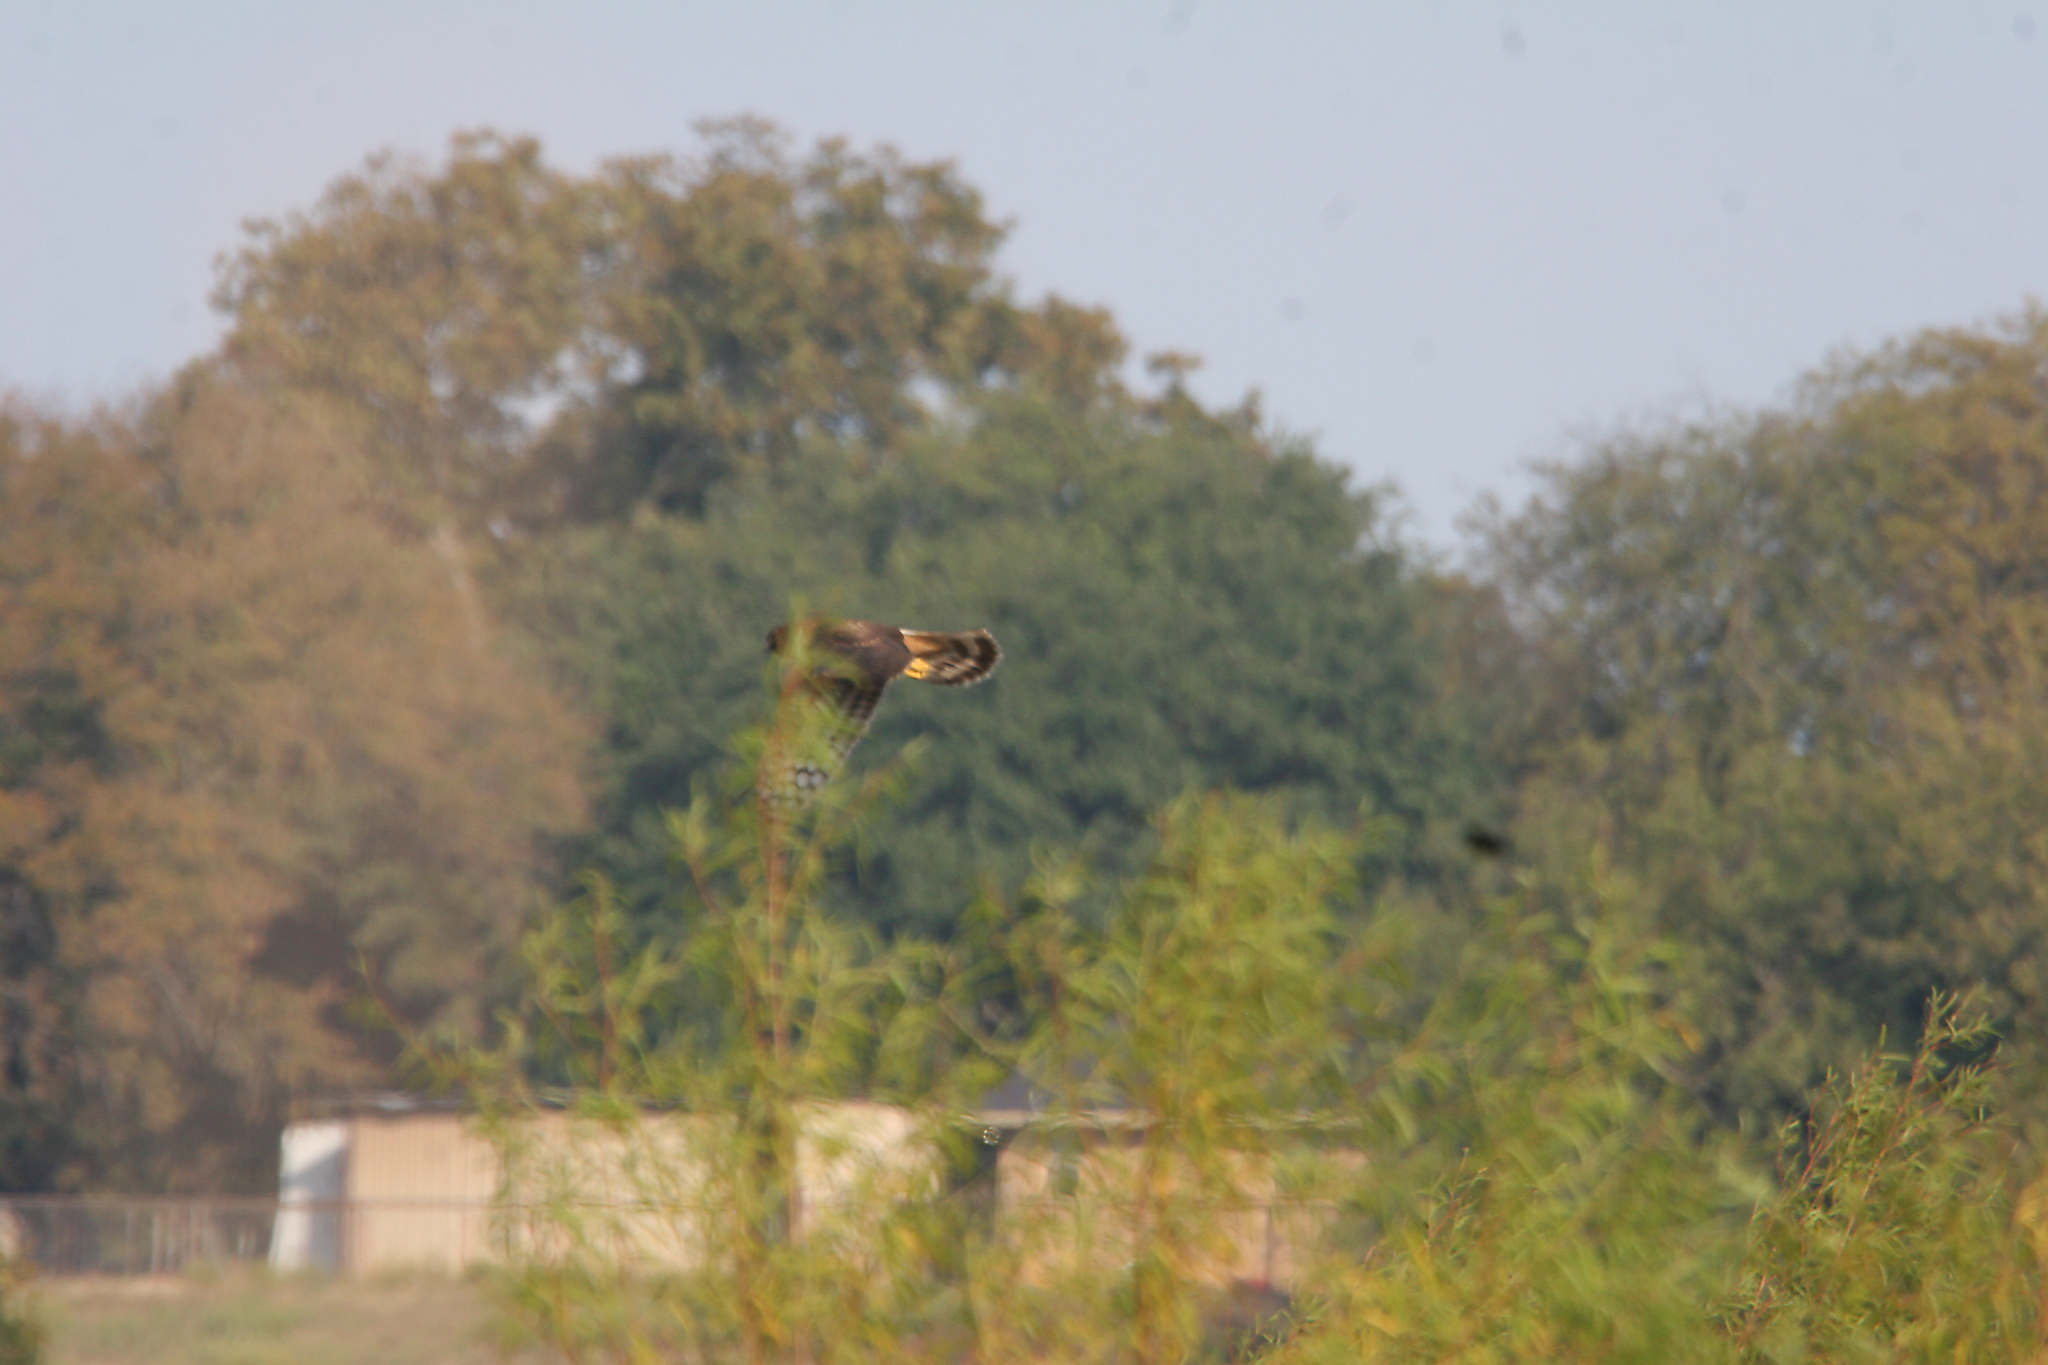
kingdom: Animalia
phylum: Chordata
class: Aves
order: Accipitriformes
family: Accipitridae
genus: Circus
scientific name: Circus cyaneus
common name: Hen harrier
